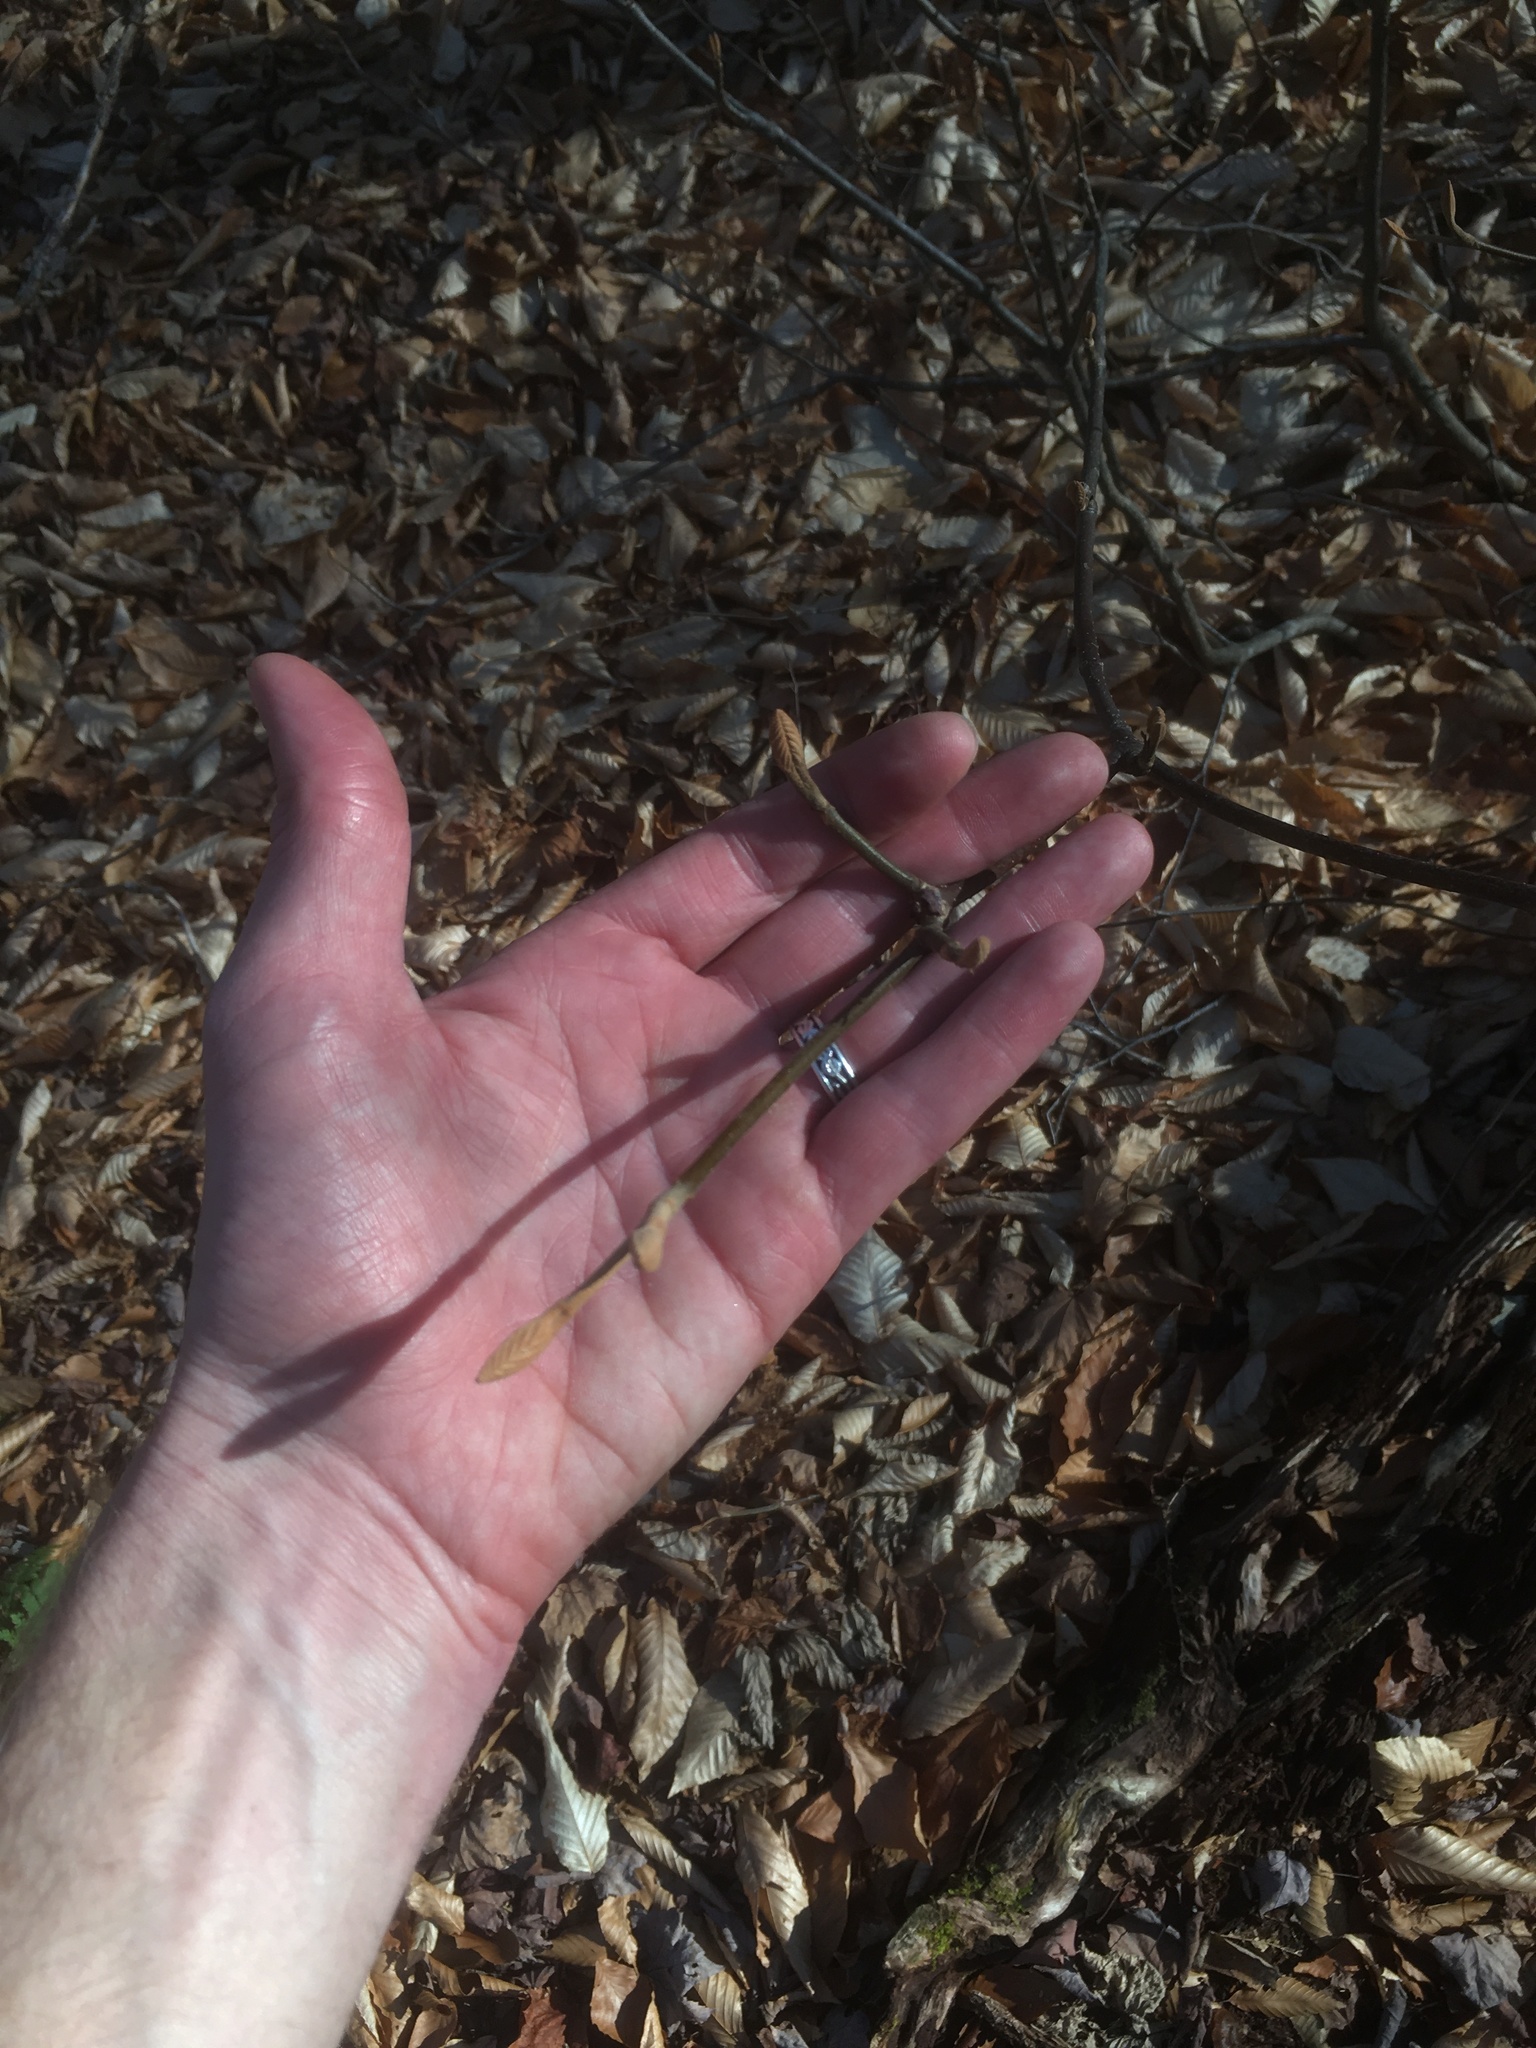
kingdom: Plantae
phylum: Tracheophyta
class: Magnoliopsida
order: Dipsacales
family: Viburnaceae
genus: Viburnum
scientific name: Viburnum lantanoides
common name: Hobblebush
